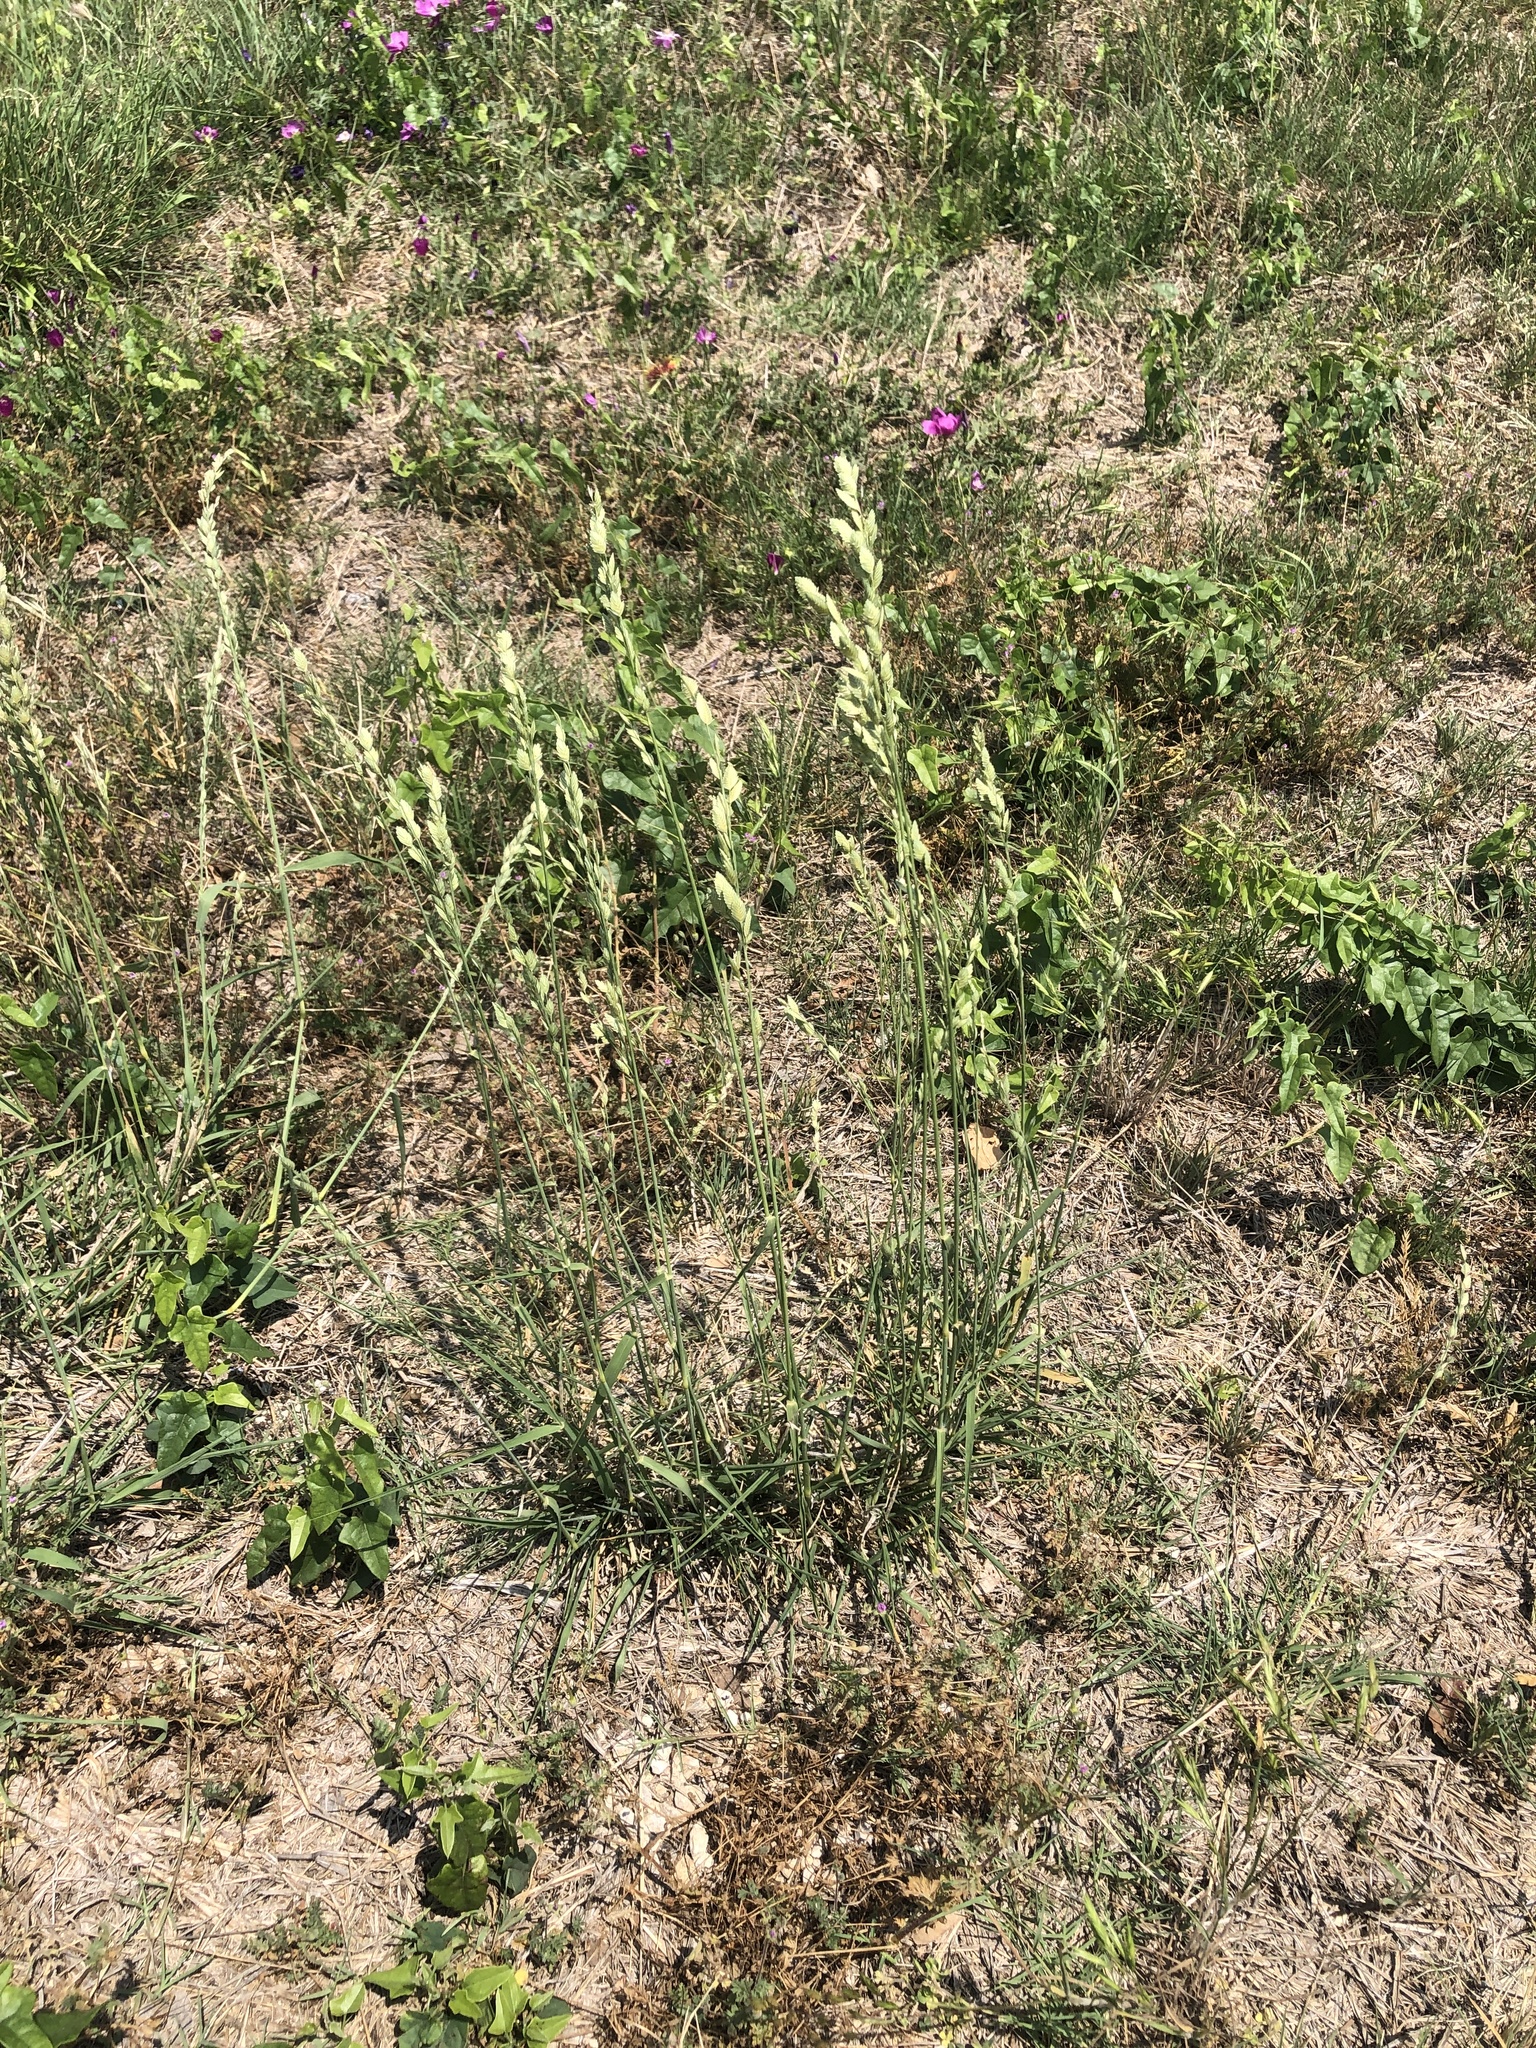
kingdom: Plantae
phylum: Tracheophyta
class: Liliopsida
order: Poales
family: Poaceae
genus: Eragrostis
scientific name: Eragrostis superba
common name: Wilman lovegrass
